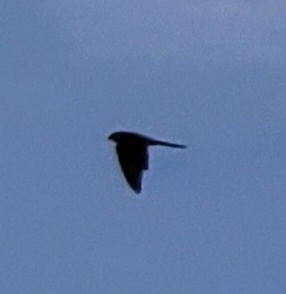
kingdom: Animalia
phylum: Chordata
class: Aves
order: Falconiformes
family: Falconidae
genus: Falco
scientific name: Falco tinnunculus
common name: Common kestrel
